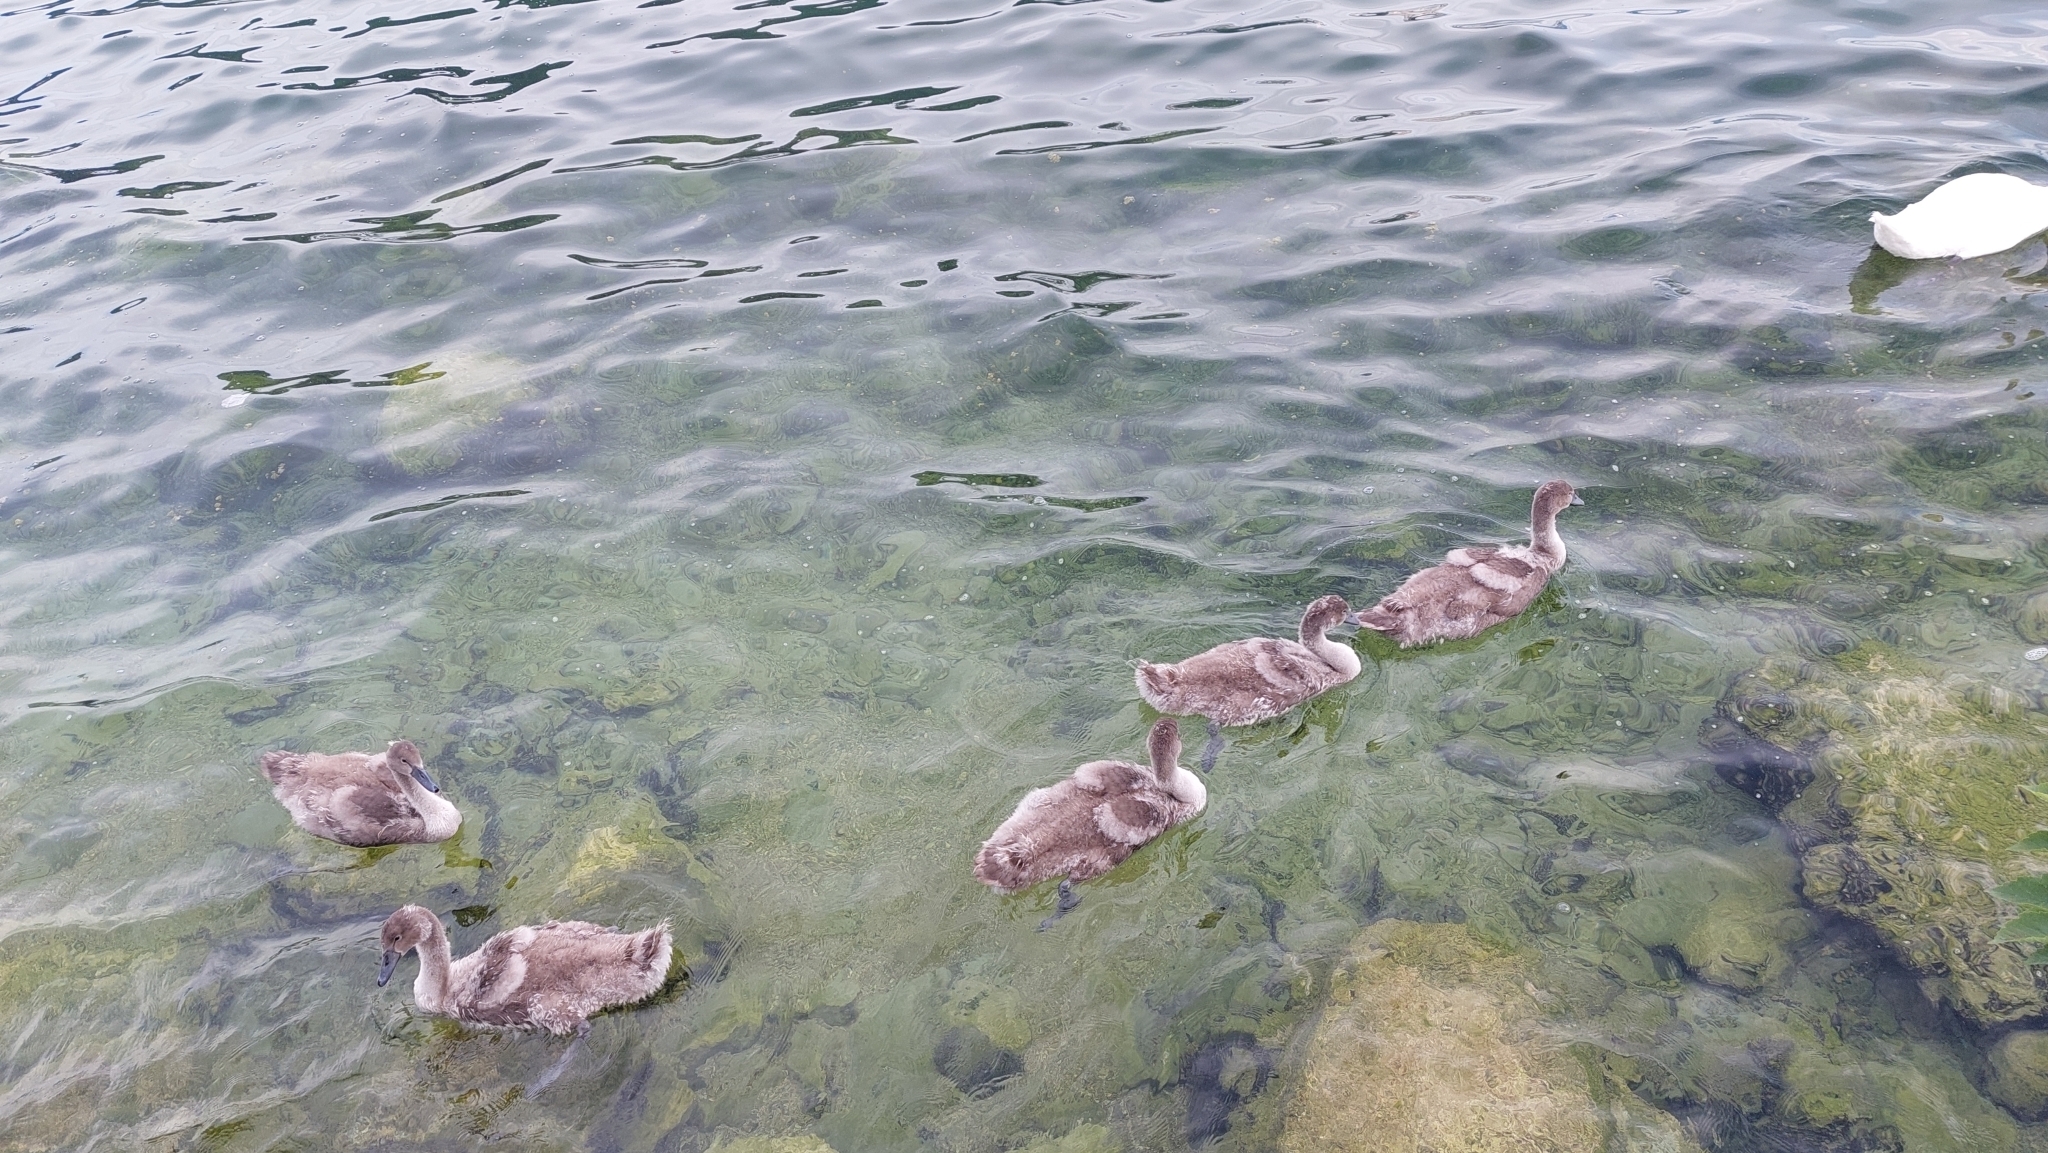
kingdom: Animalia
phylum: Chordata
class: Aves
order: Anseriformes
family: Anatidae
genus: Cygnus
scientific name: Cygnus olor
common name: Mute swan
